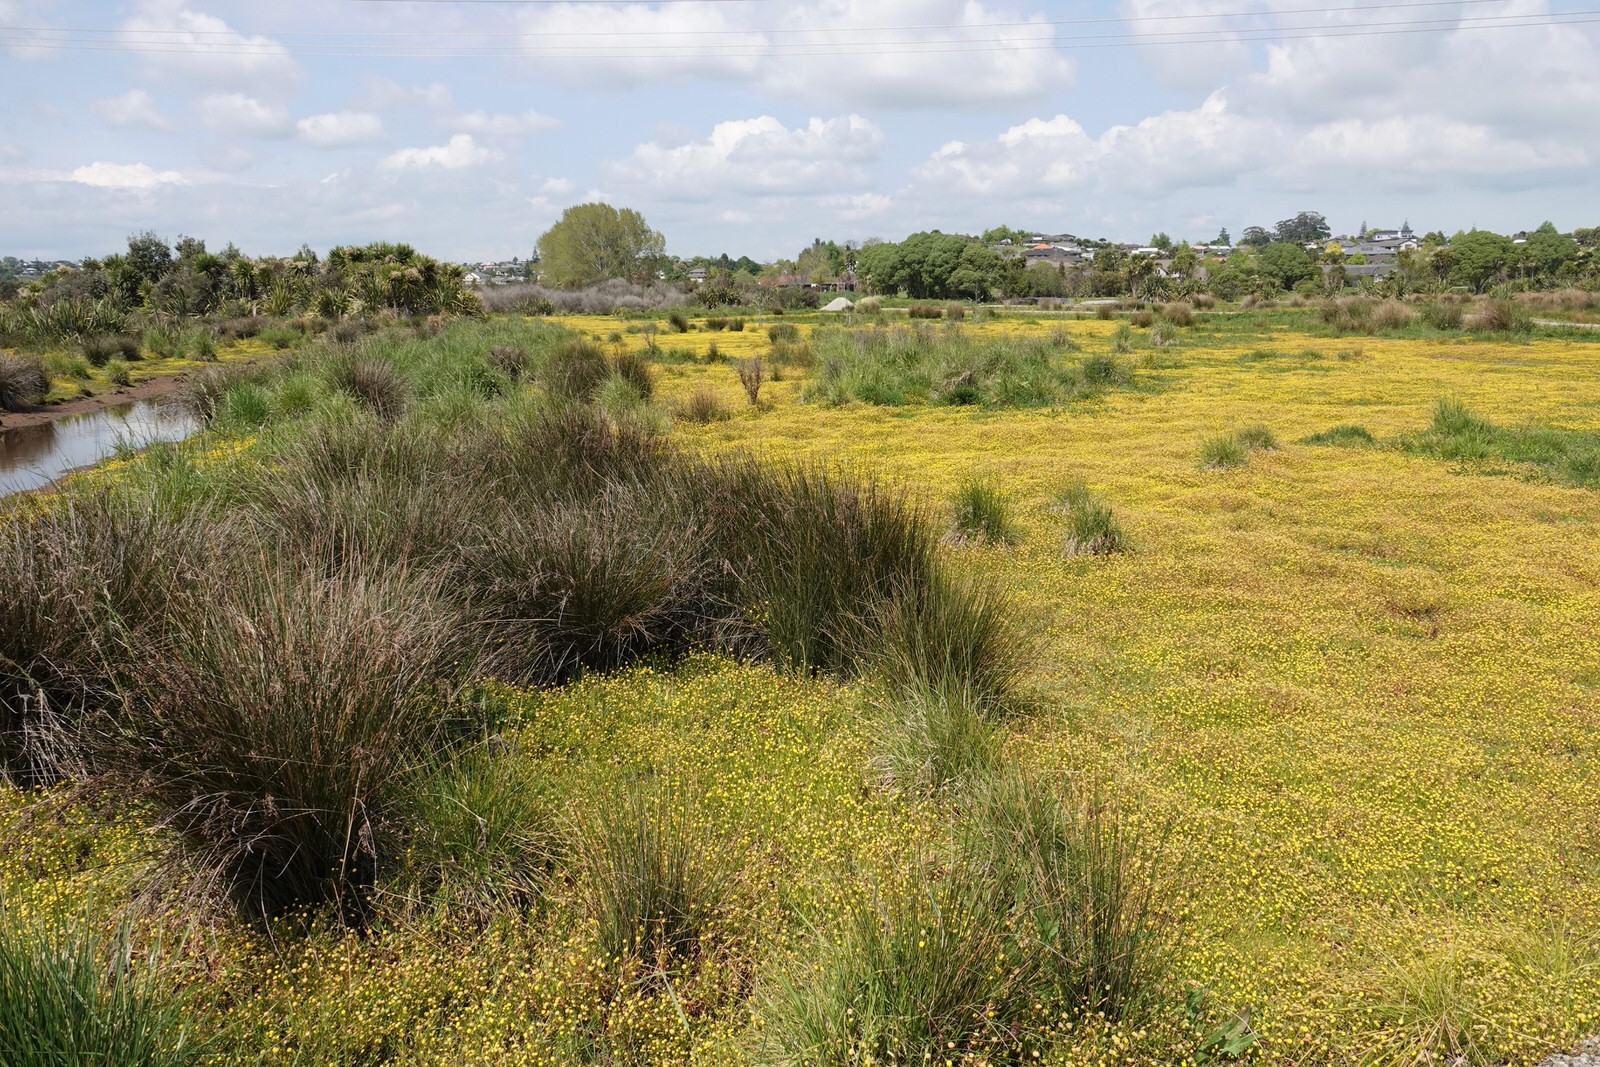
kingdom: Plantae
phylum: Tracheophyta
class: Magnoliopsida
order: Asterales
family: Asteraceae
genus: Cotula
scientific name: Cotula coronopifolia
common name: Buttonweed
